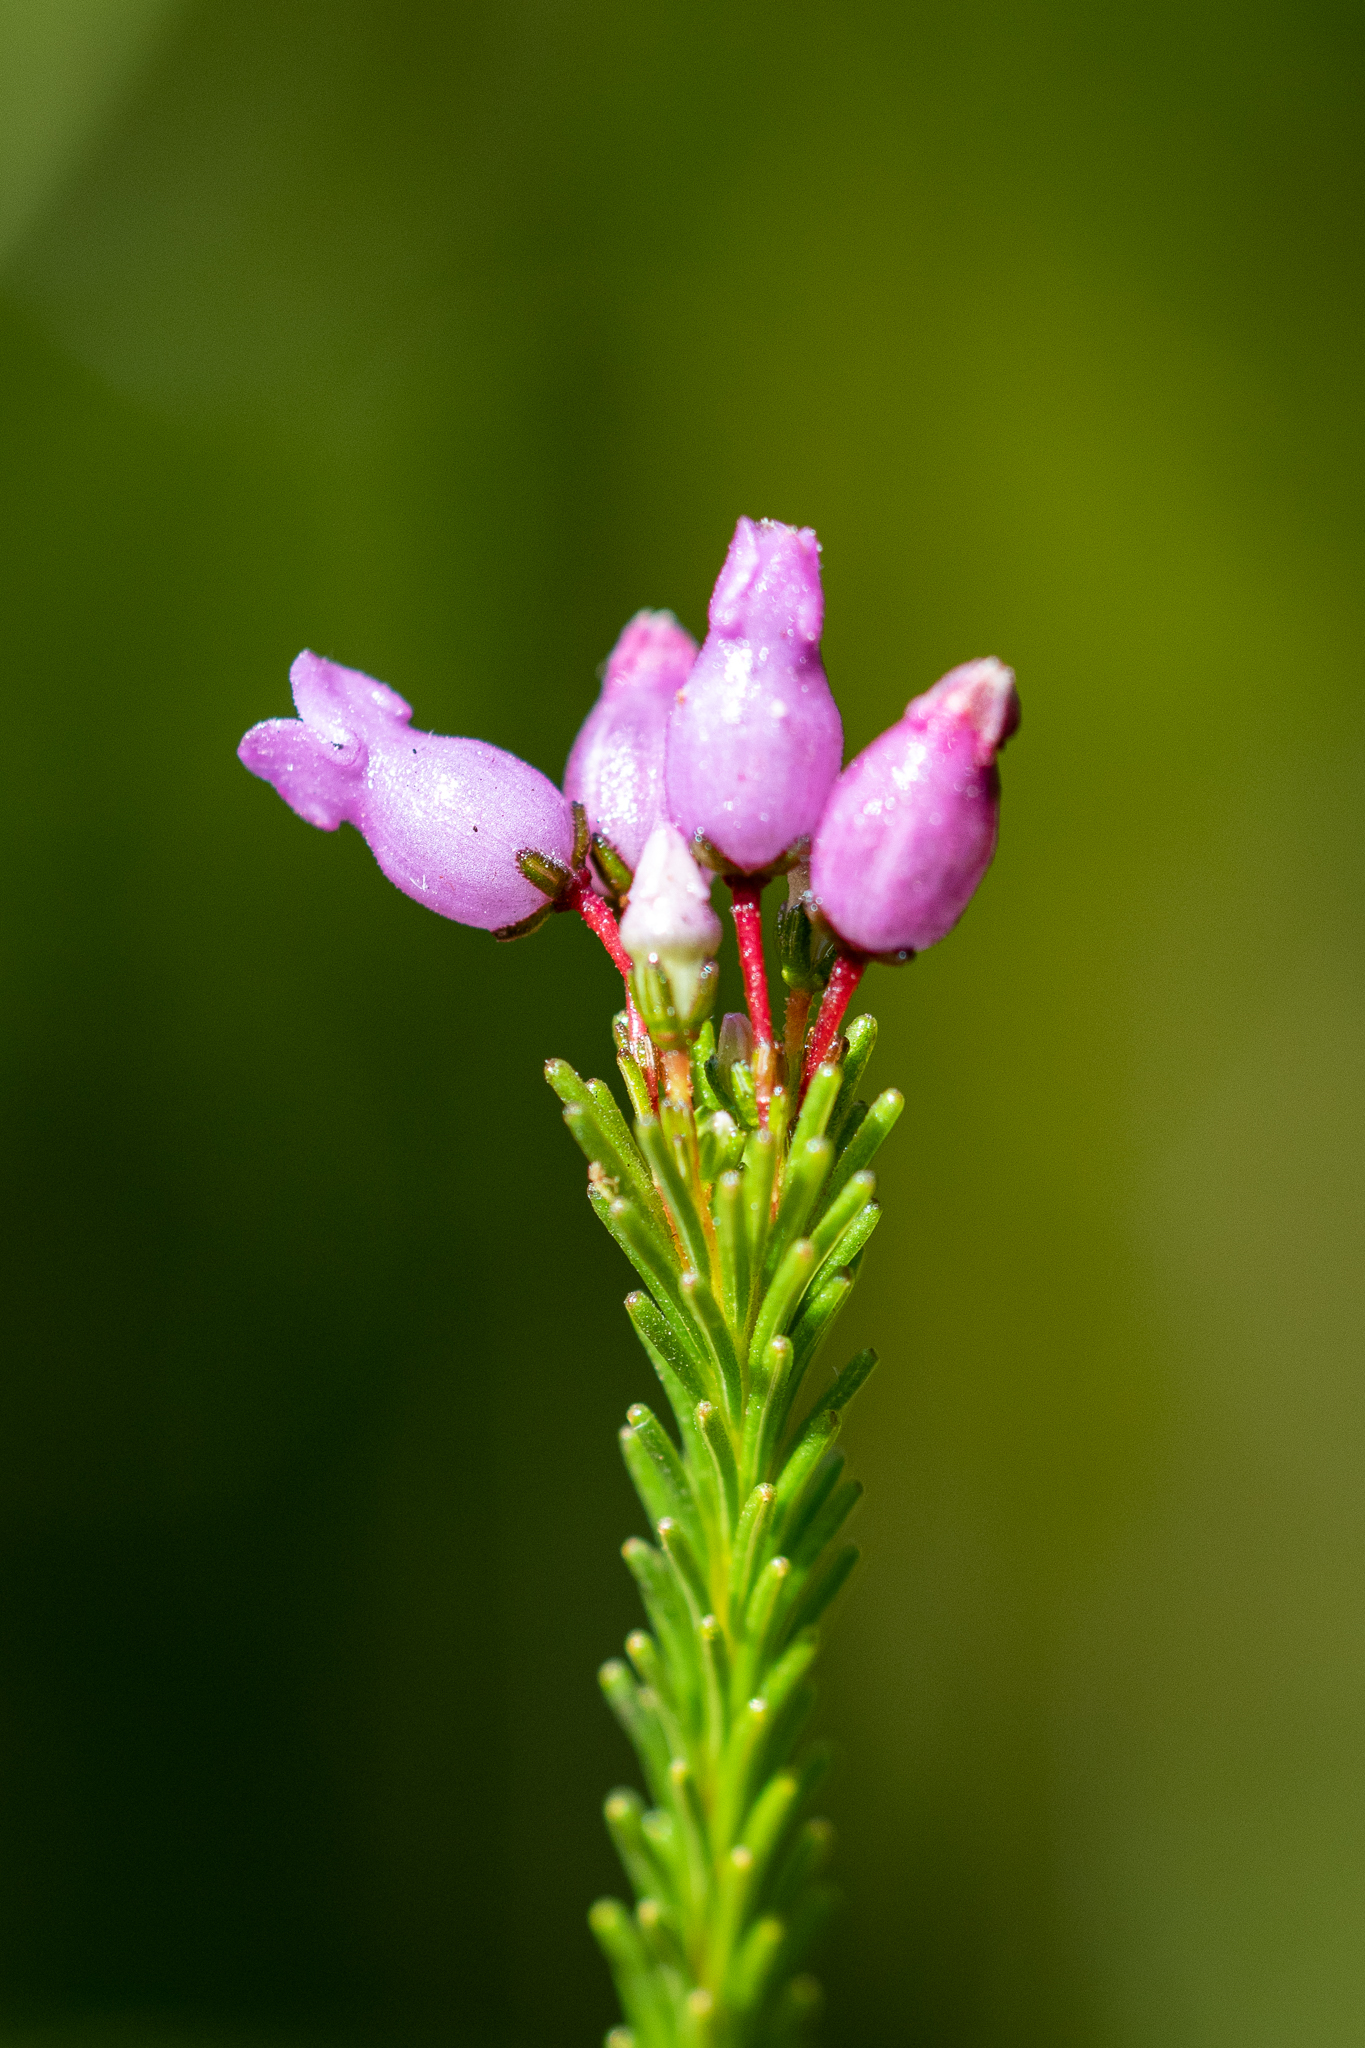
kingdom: Plantae
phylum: Tracheophyta
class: Magnoliopsida
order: Ericales
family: Ericaceae
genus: Erica
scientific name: Erica obliqua
